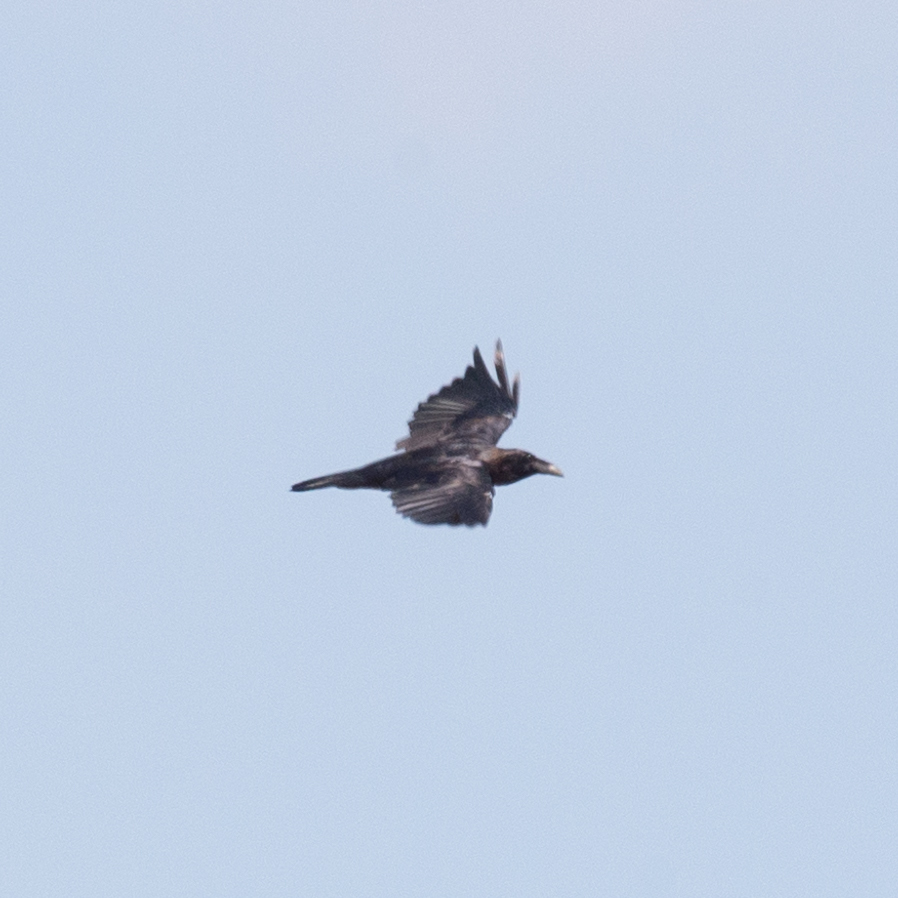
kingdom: Animalia
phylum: Chordata
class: Aves
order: Passeriformes
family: Corvidae
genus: Corvus
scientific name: Corvus corax
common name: Common raven
